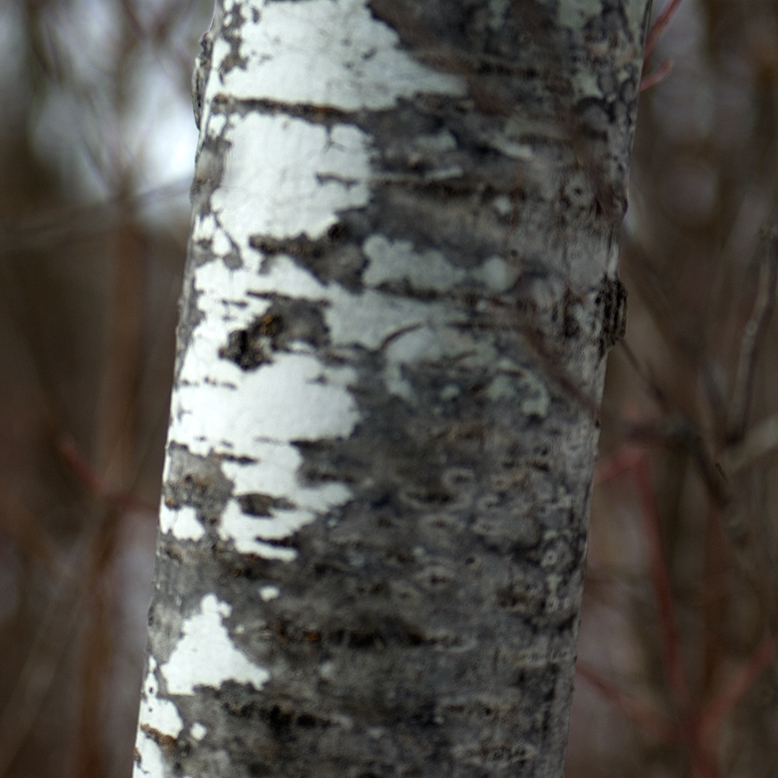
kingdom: Plantae
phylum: Tracheophyta
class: Magnoliopsida
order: Malpighiales
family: Salicaceae
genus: Populus
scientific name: Populus tremuloides
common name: Quaking aspen
